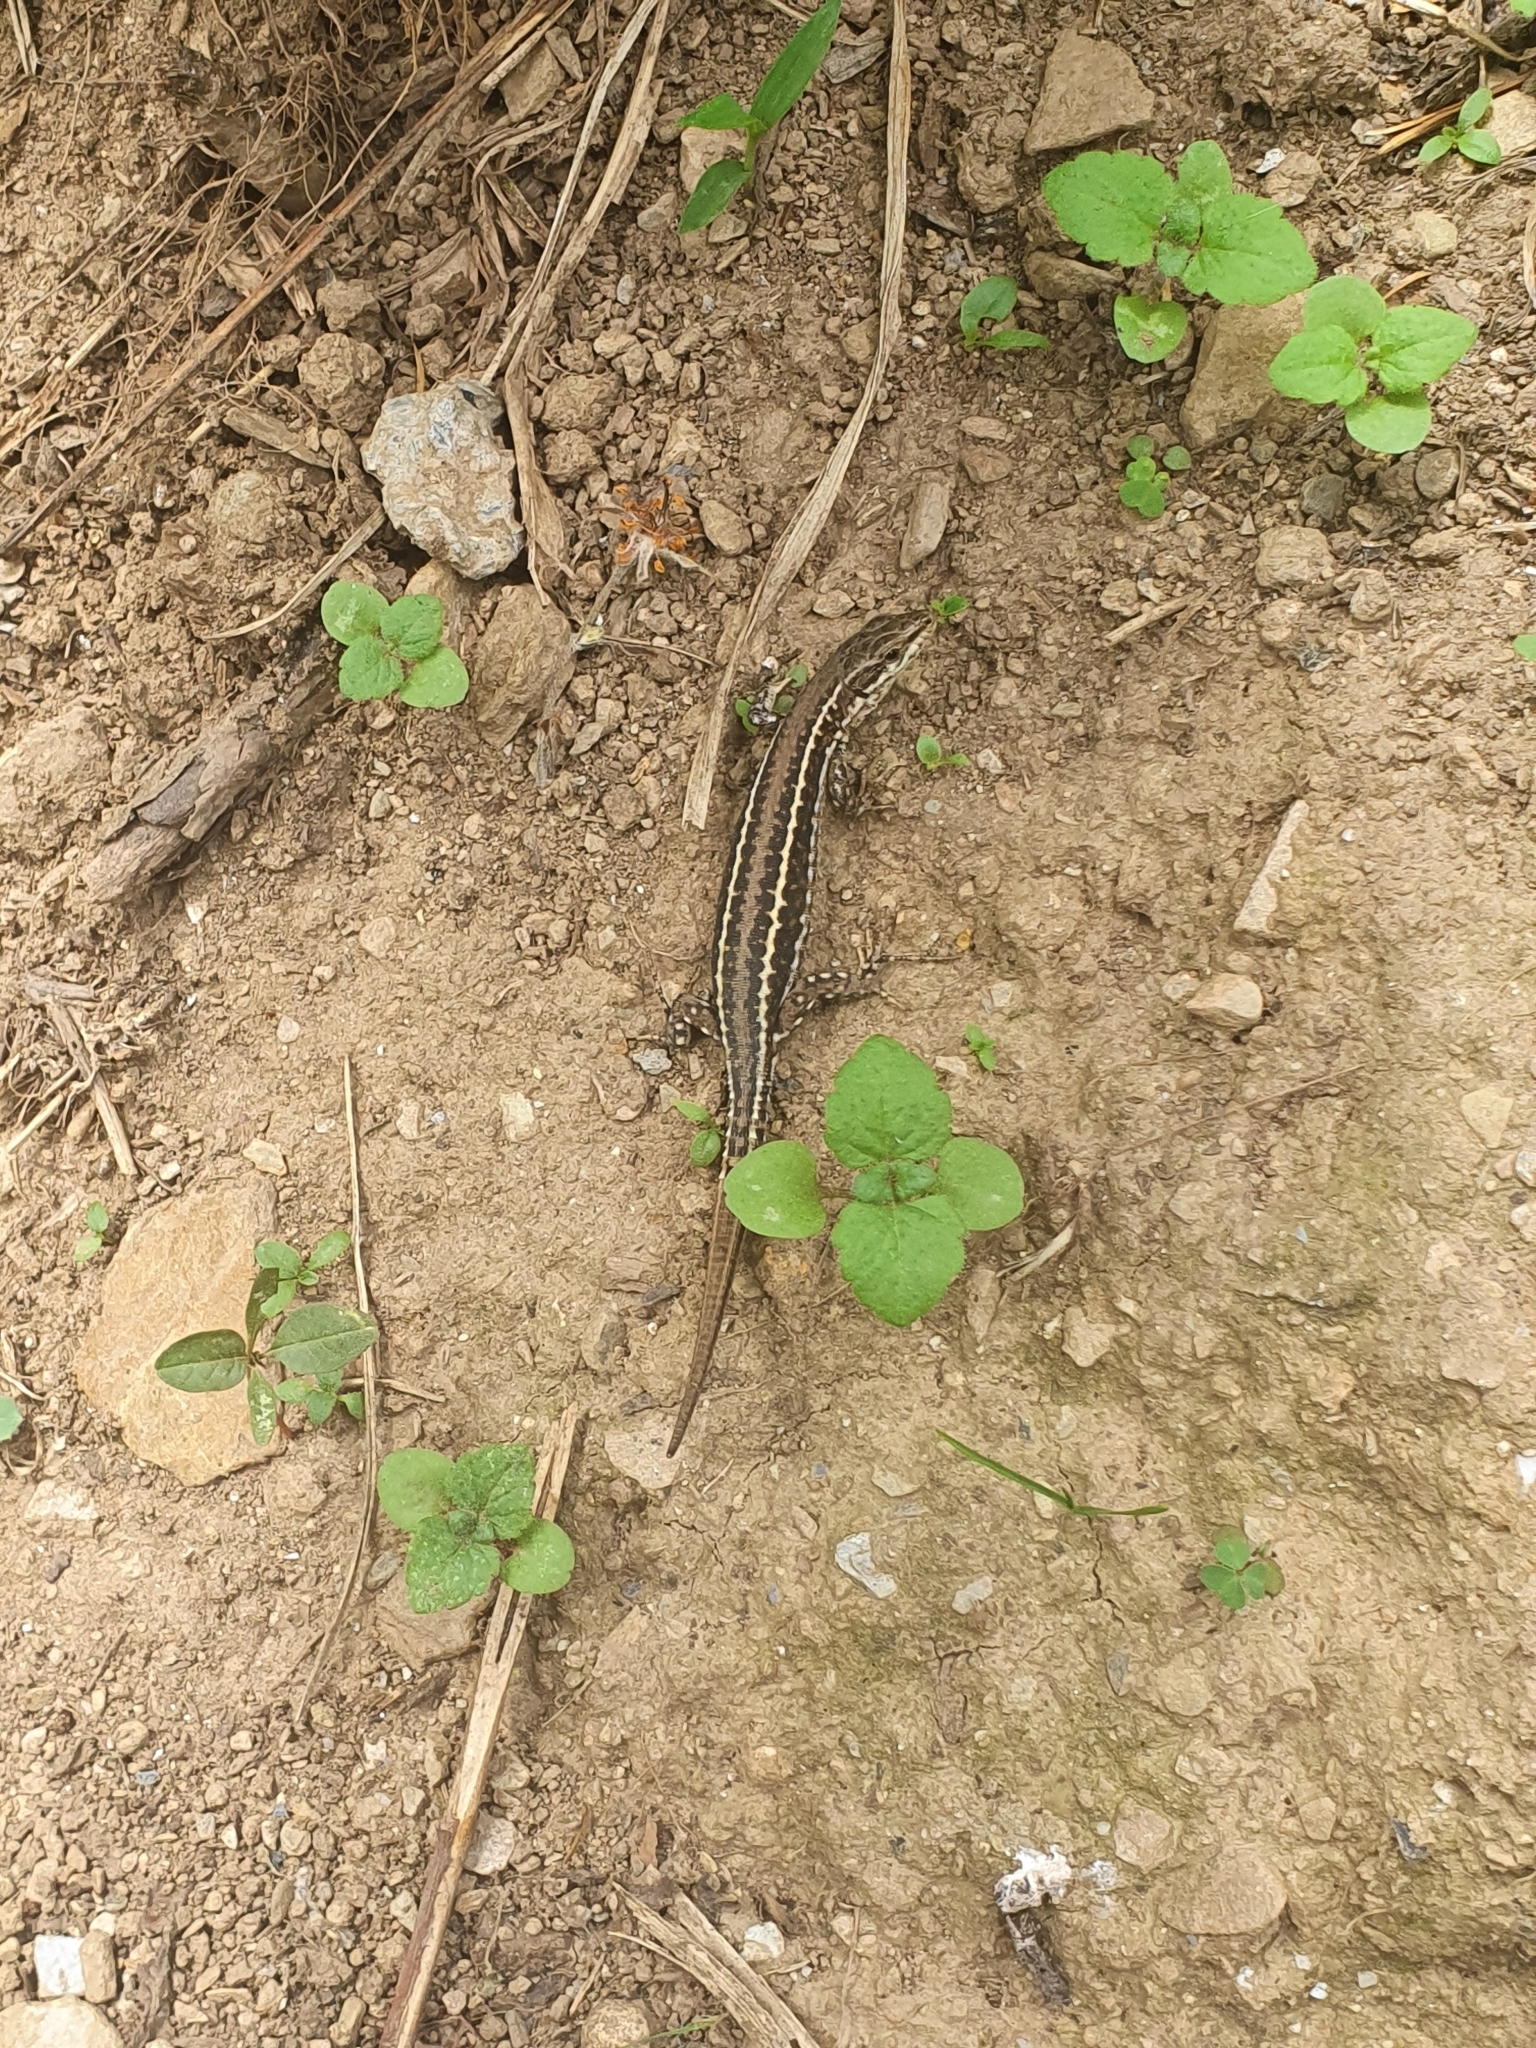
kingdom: Animalia
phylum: Chordata
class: Squamata
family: Lacertidae
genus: Podarcis
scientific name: Podarcis bocagei
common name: Bocage's wall lizard
